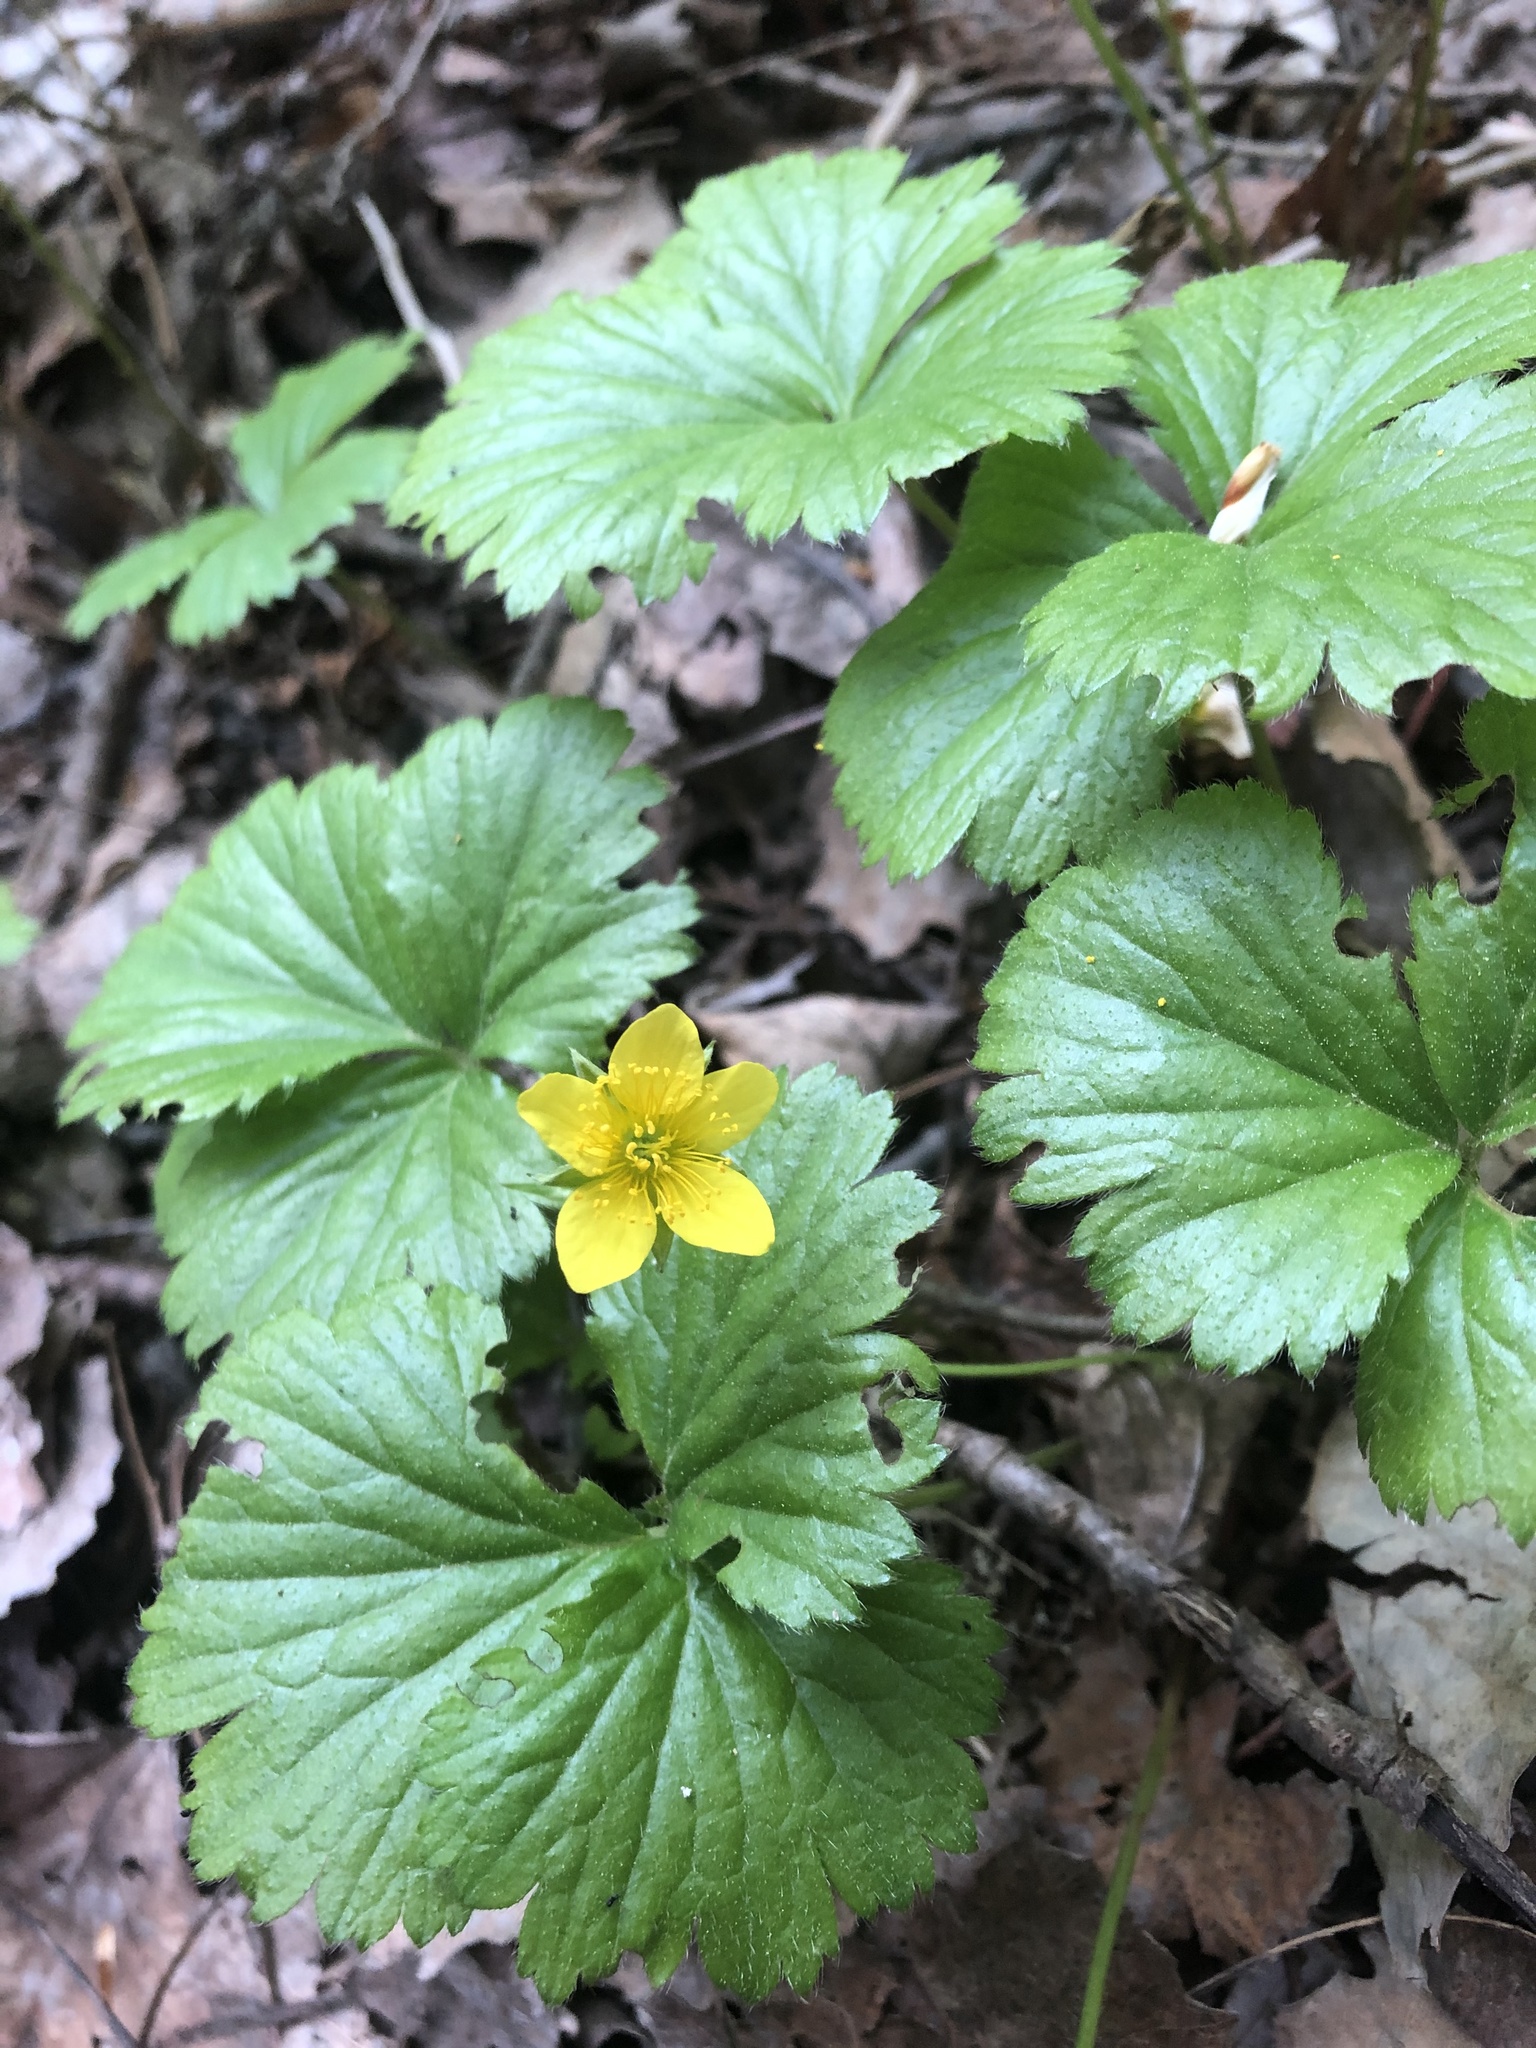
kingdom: Plantae
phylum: Tracheophyta
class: Magnoliopsida
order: Rosales
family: Rosaceae
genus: Geum
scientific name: Geum fragarioides
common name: Appalachian barren strawberry
